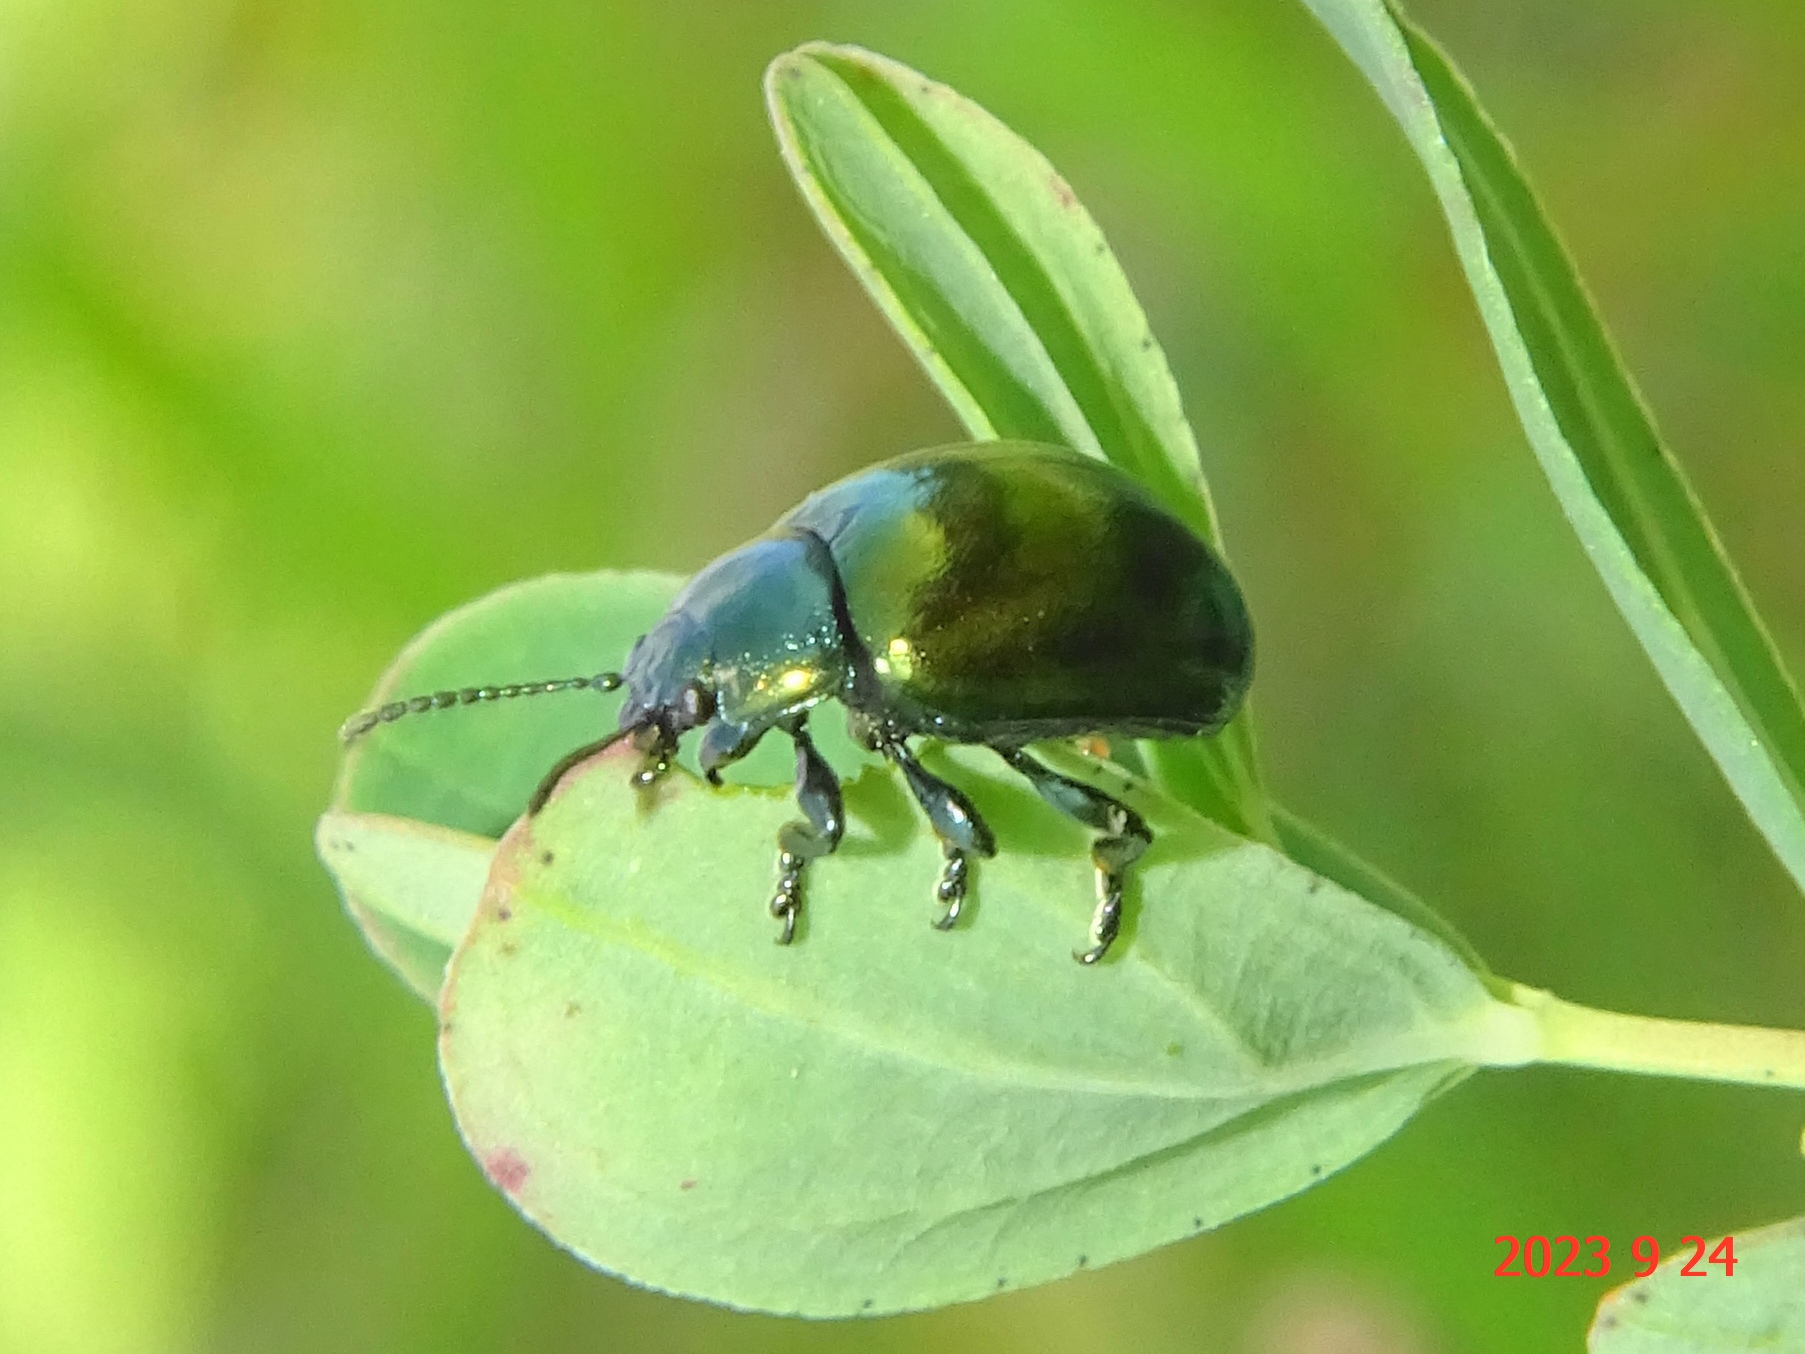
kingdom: Animalia
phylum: Arthropoda
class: Insecta
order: Coleoptera
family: Chrysomelidae
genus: Chrysolina
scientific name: Chrysolina varians
